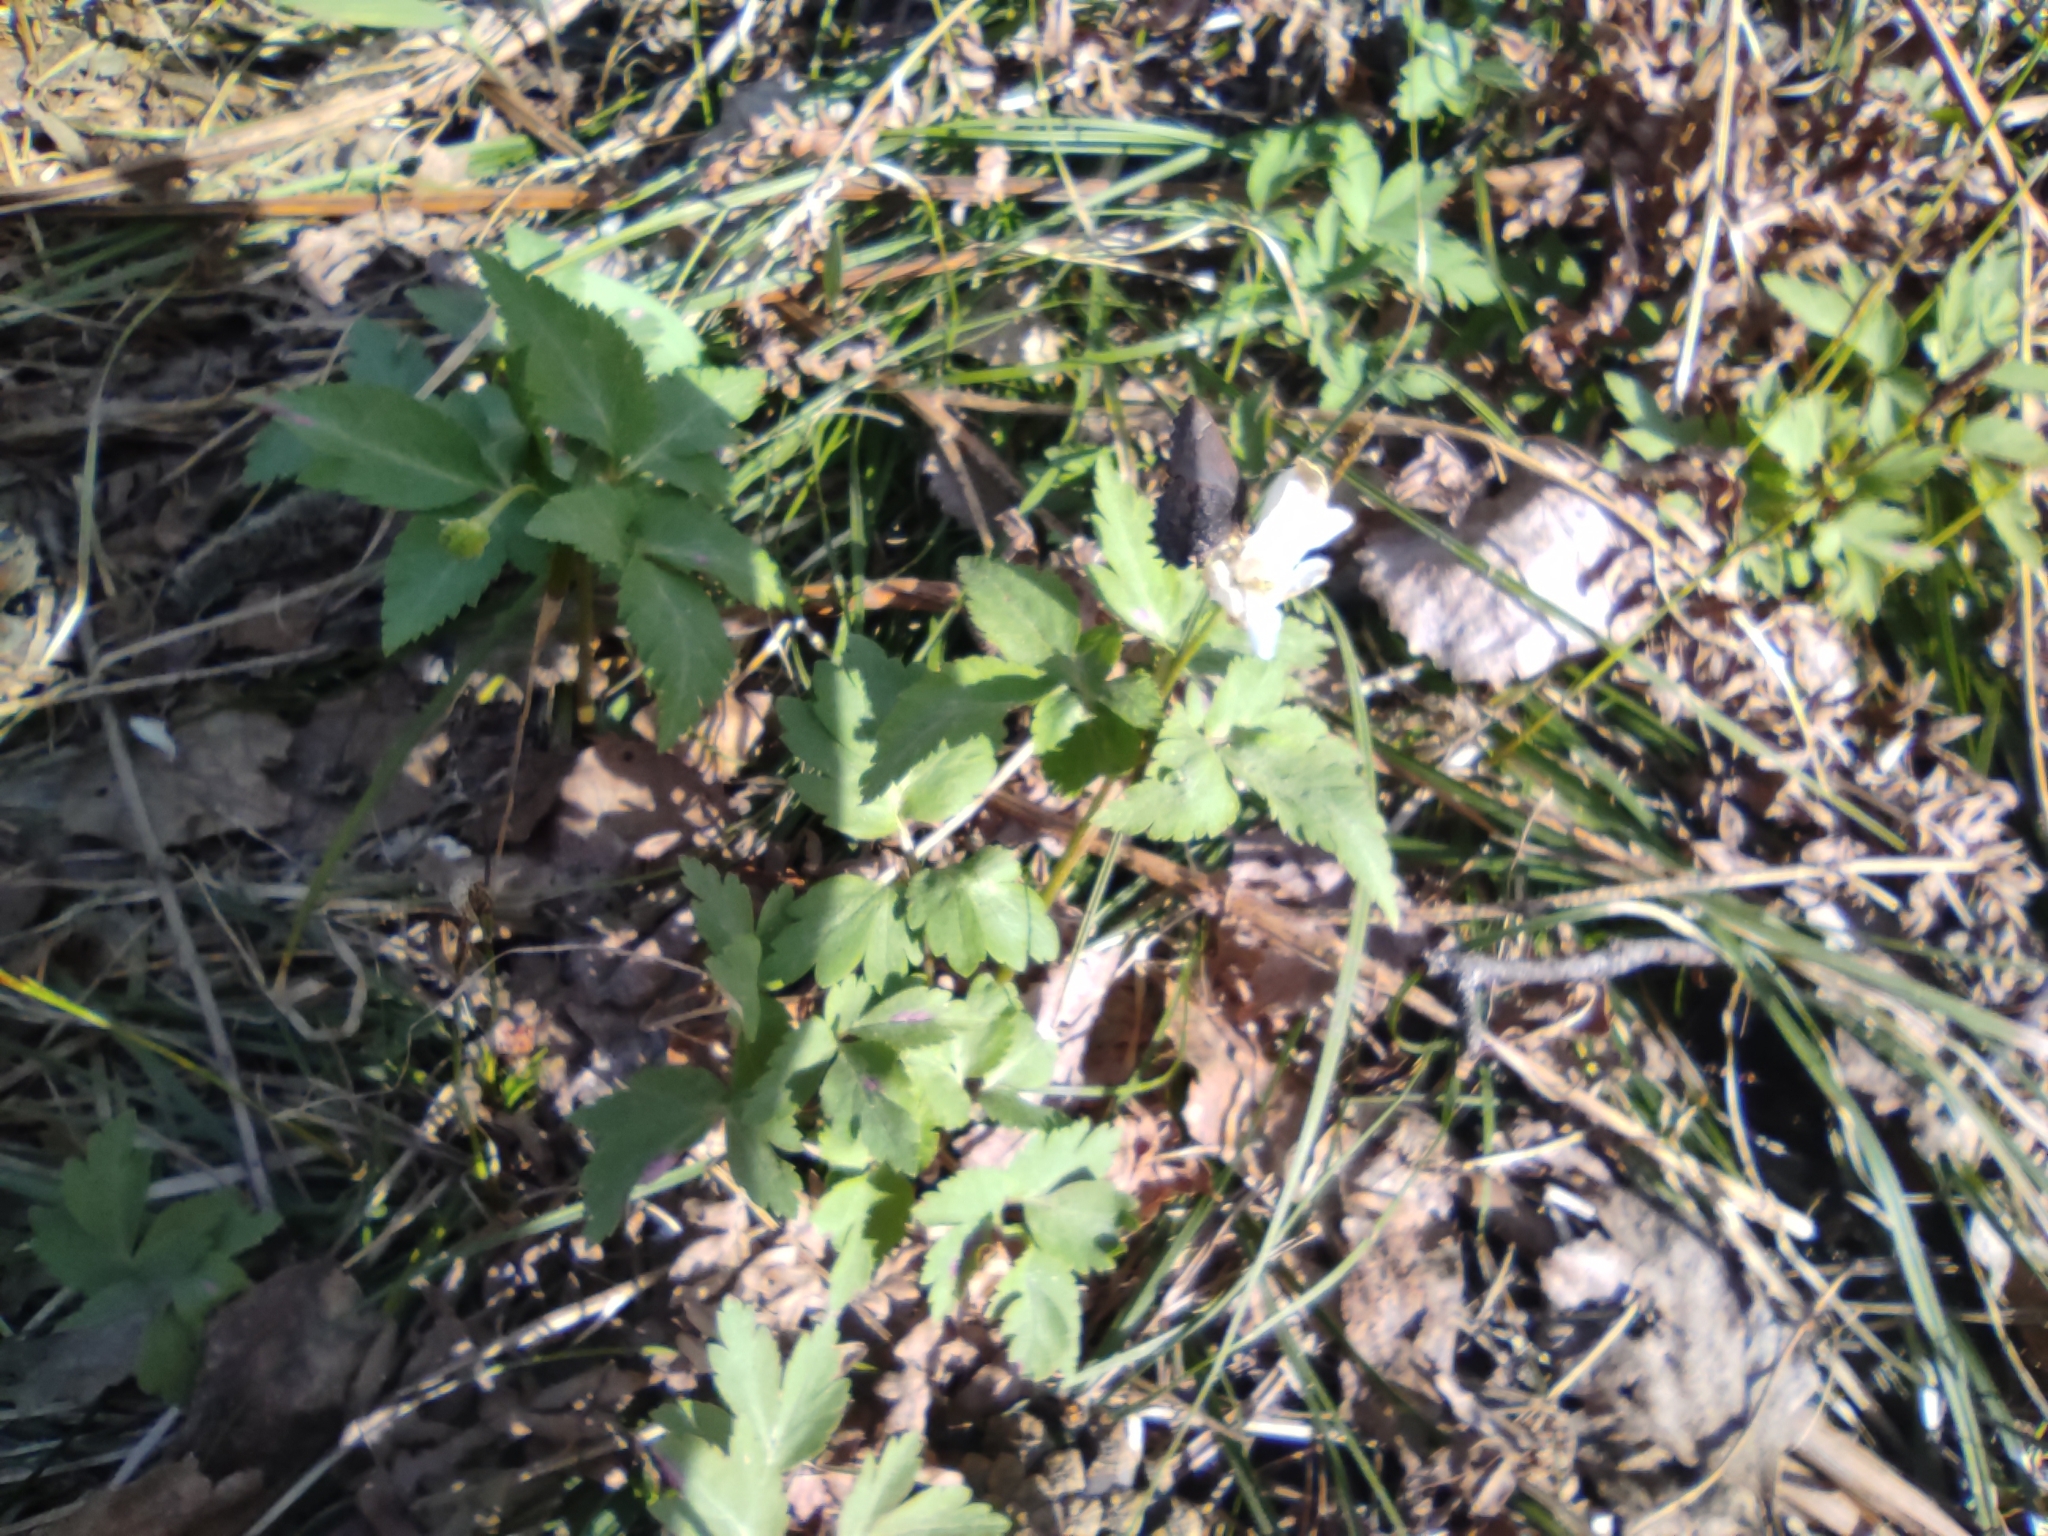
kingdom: Animalia
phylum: Arthropoda
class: Insecta
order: Lepidoptera
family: Lycaenidae
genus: Ginzia
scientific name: Ginzia Ahlbergia frivaldszkyi
